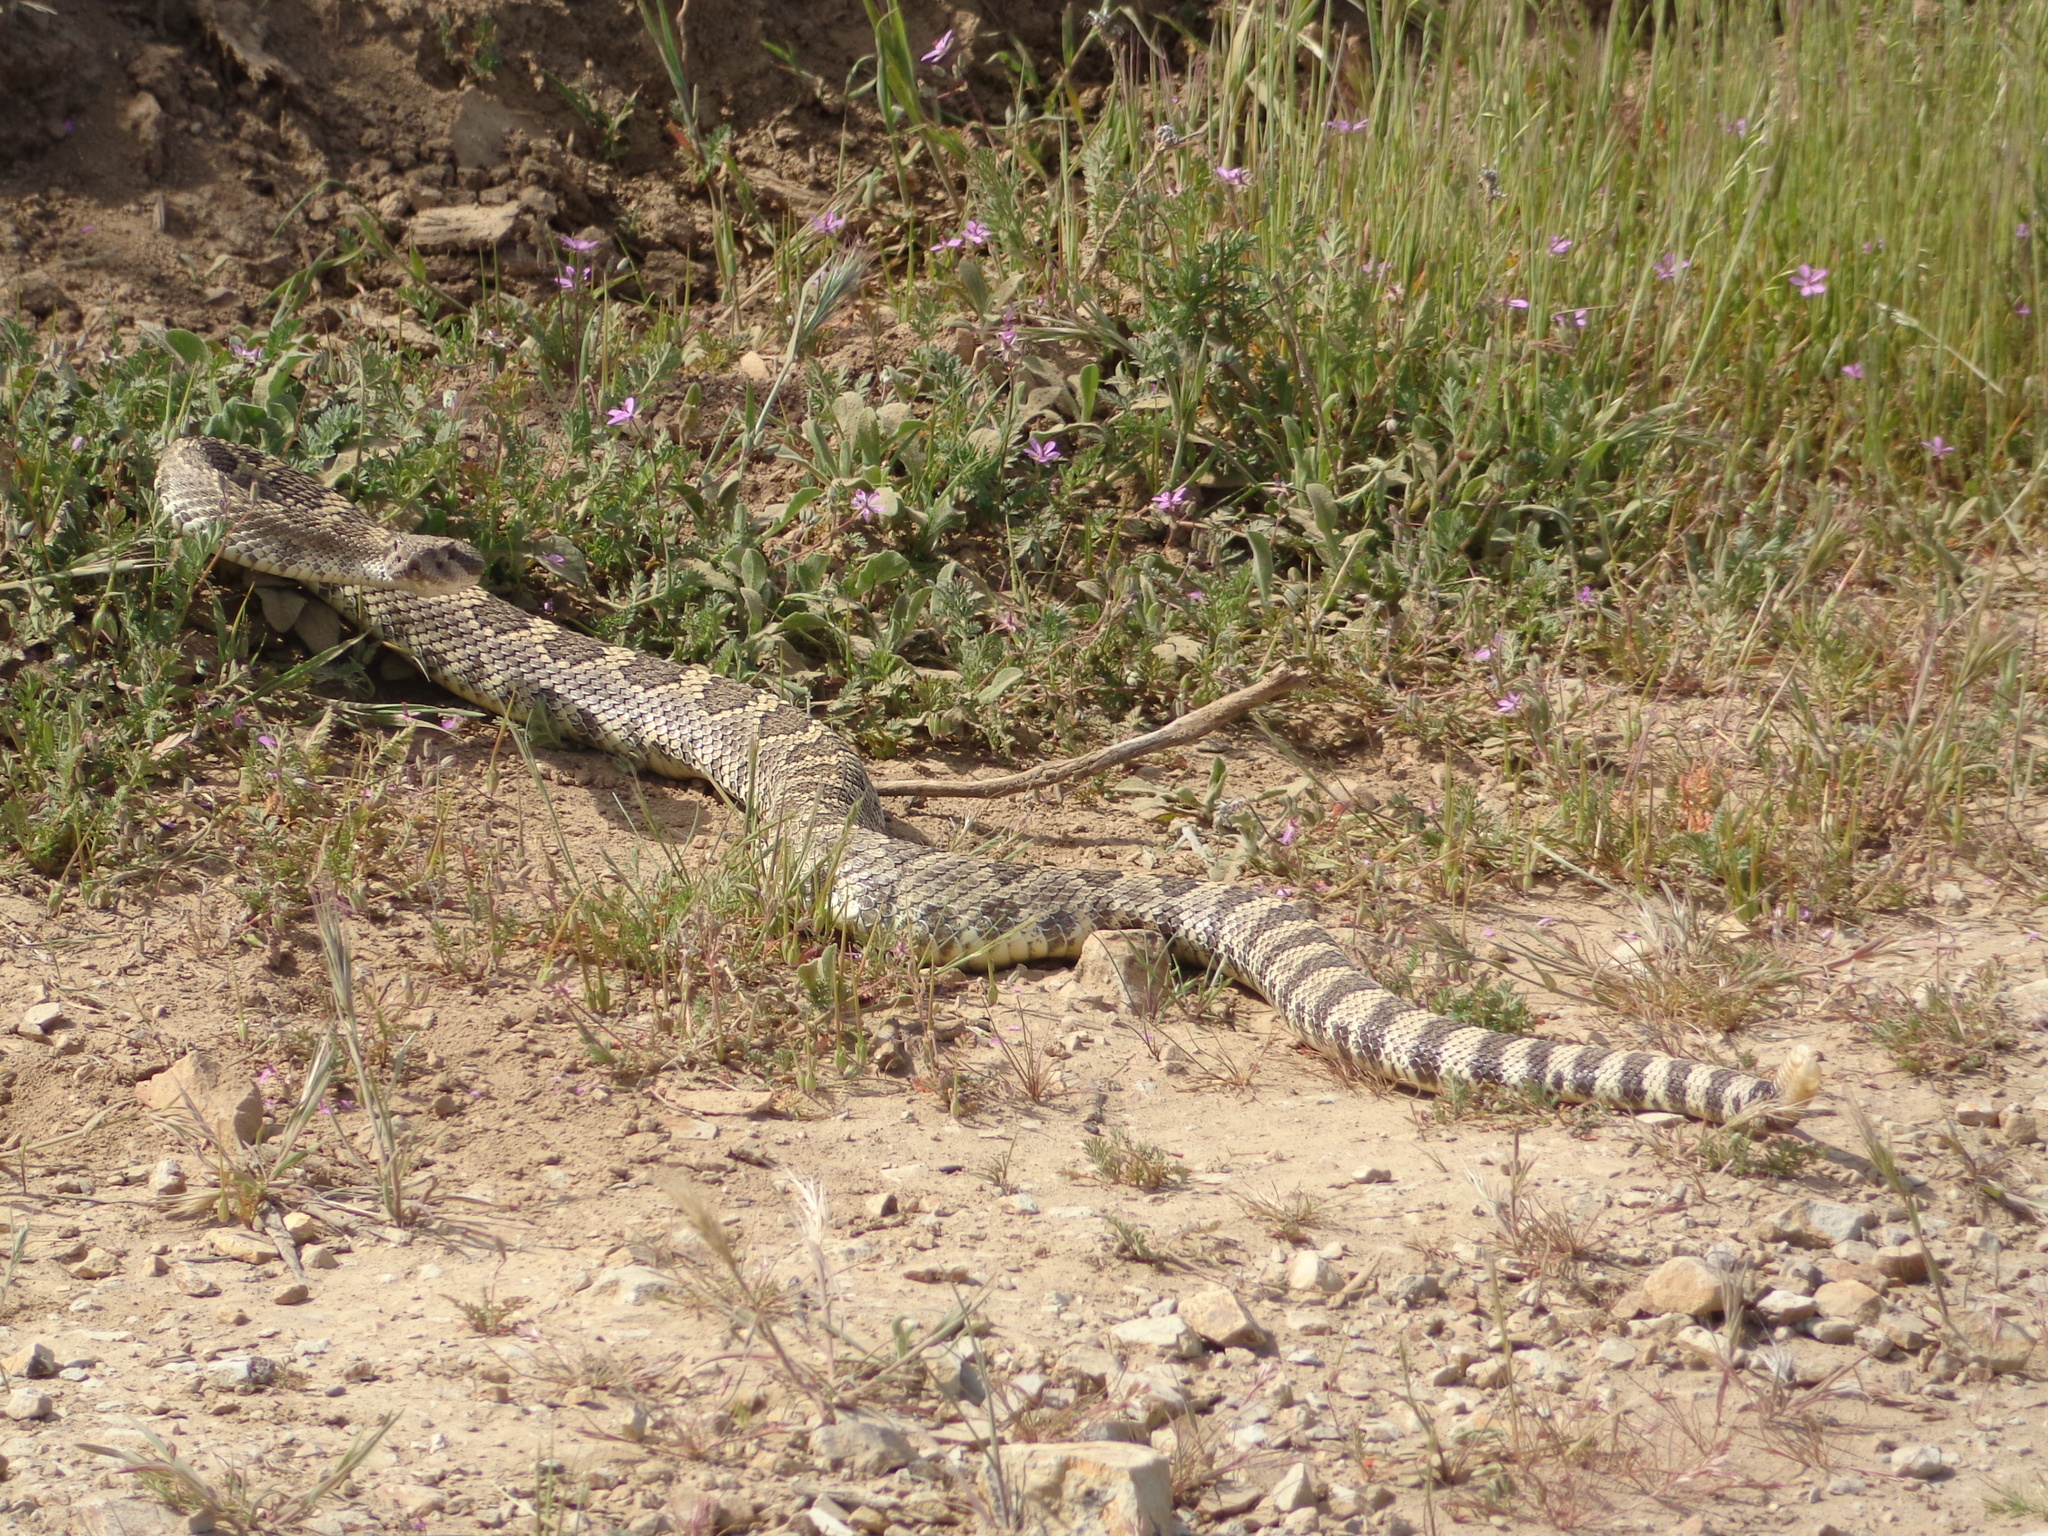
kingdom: Animalia
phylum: Chordata
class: Squamata
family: Viperidae
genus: Crotalus
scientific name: Crotalus oreganus
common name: Abyssus
